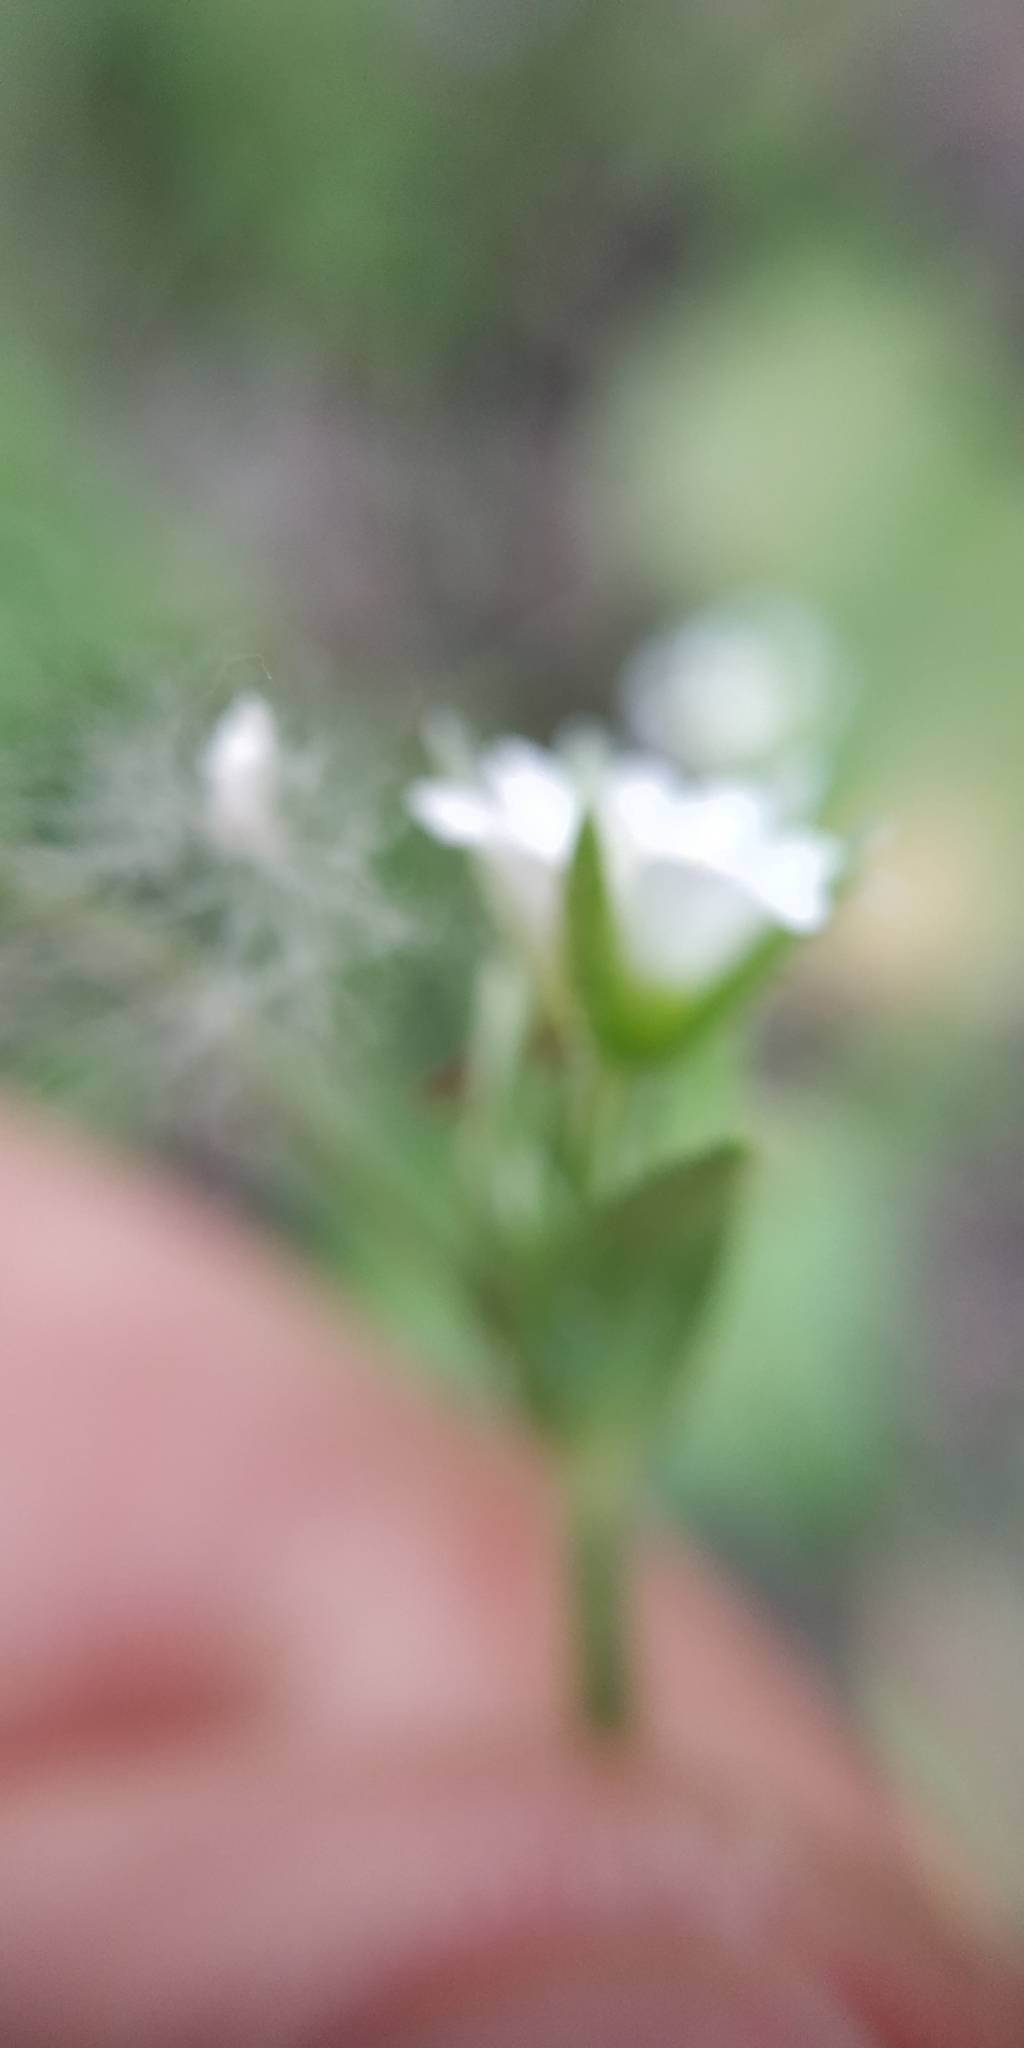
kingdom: Plantae
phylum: Tracheophyta
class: Magnoliopsida
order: Caryophyllales
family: Caryophyllaceae
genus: Cerastium
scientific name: Cerastium holosteoides
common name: Big chickweed
